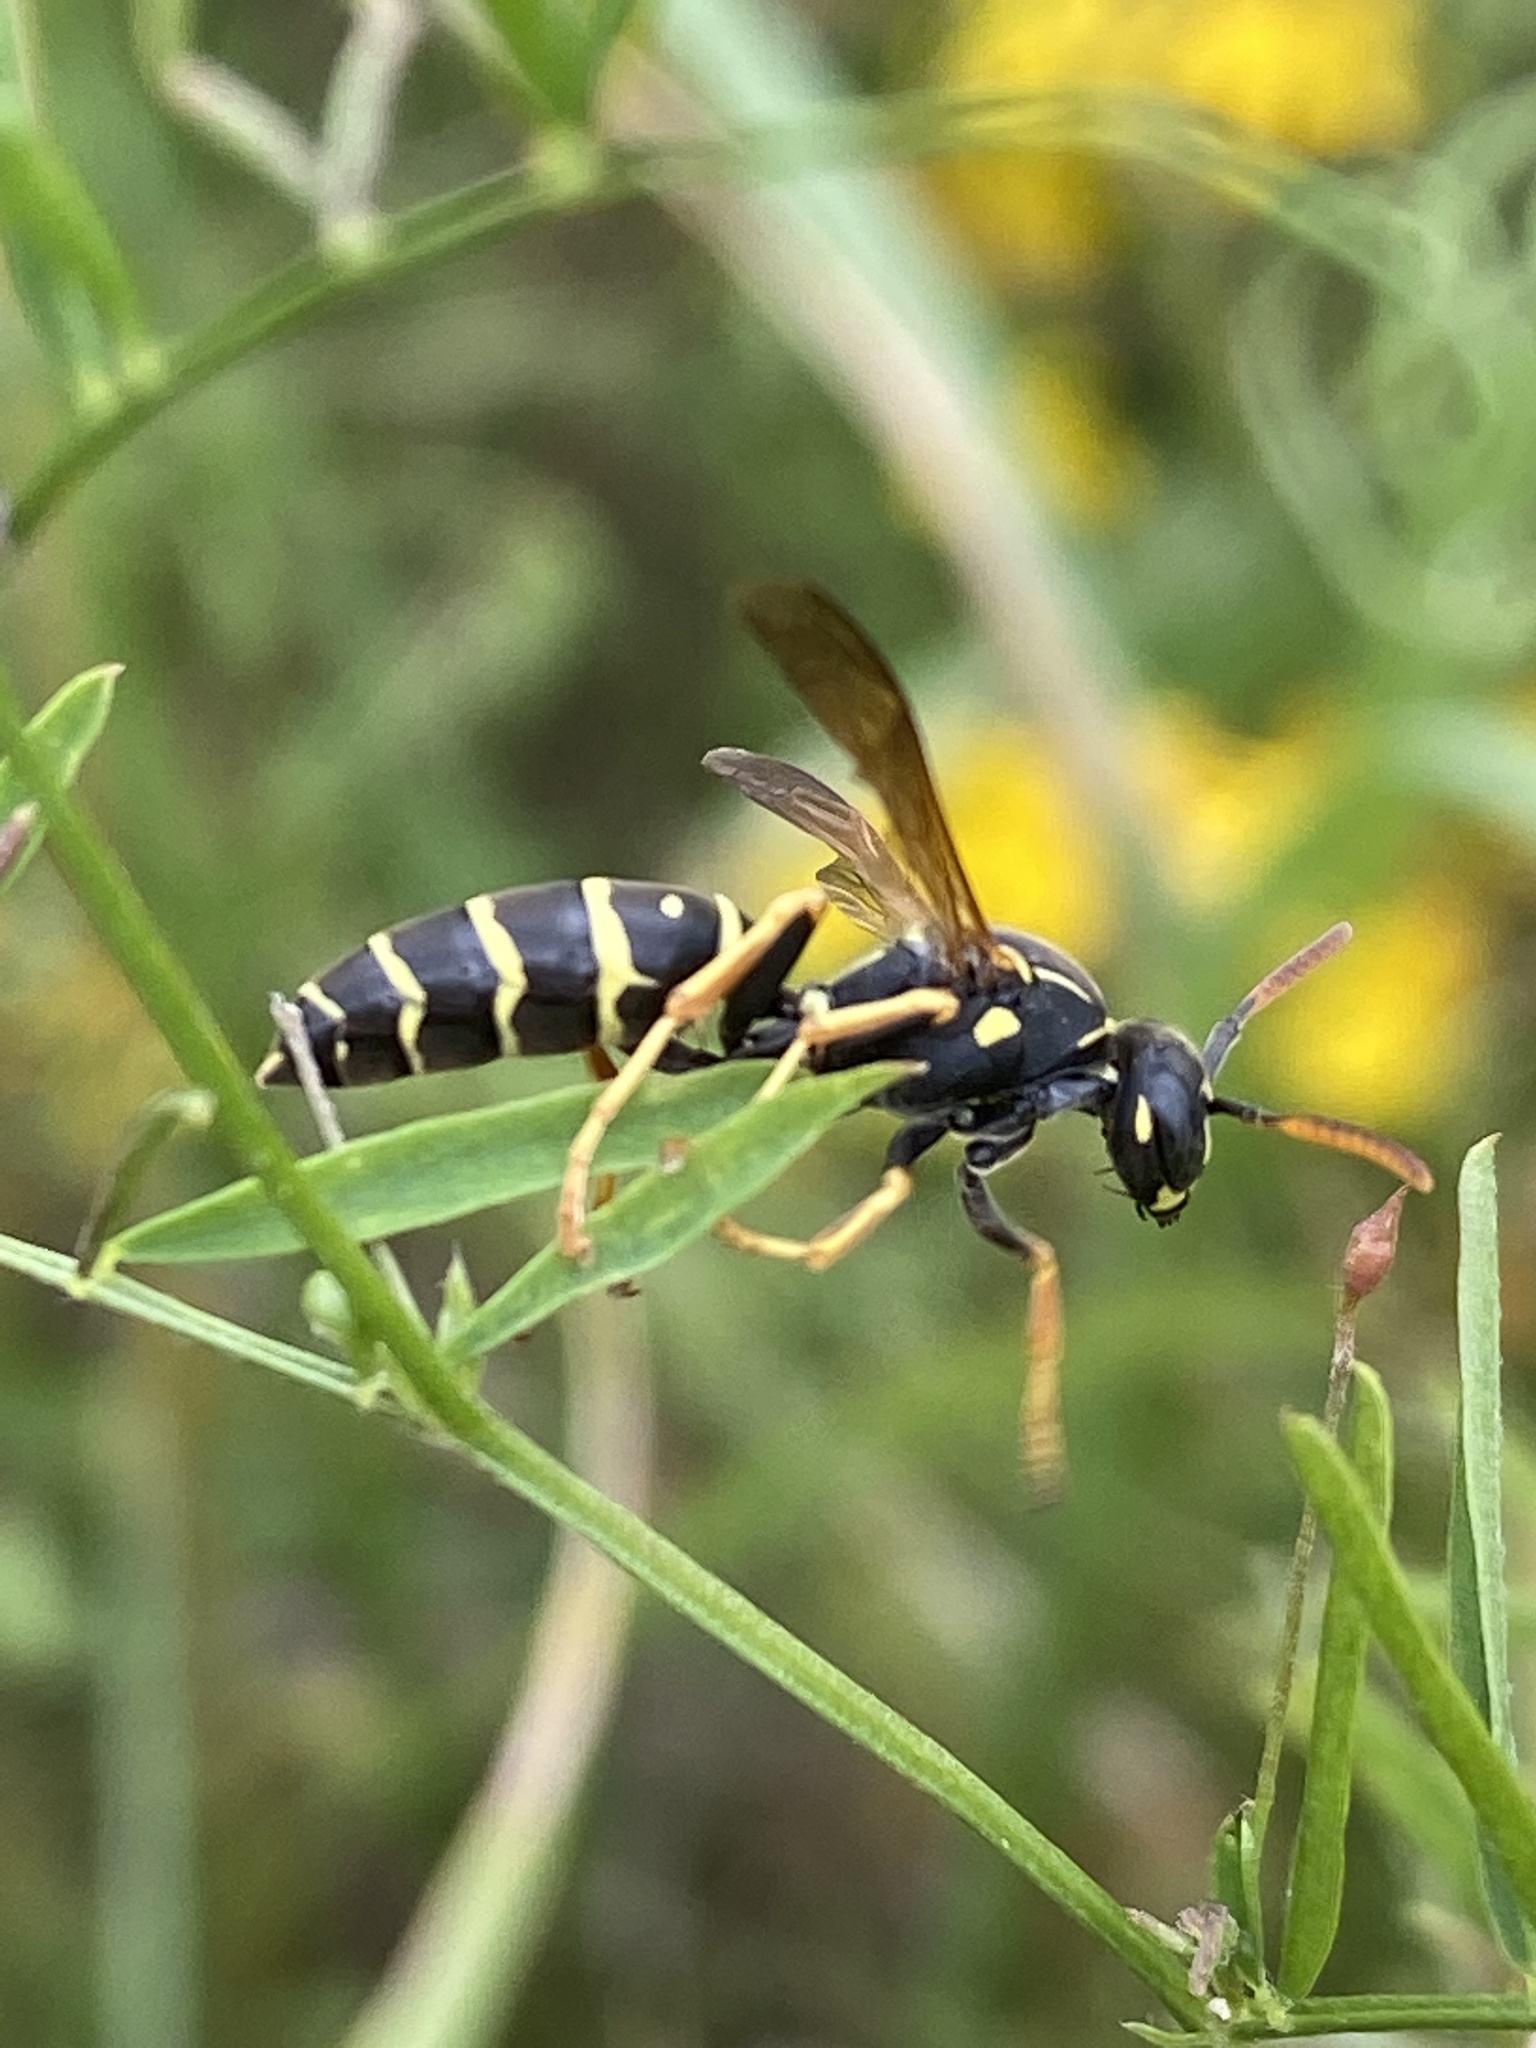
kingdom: Animalia
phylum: Arthropoda
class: Insecta
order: Hymenoptera
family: Eumenidae
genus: Polistes
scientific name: Polistes nimpha
